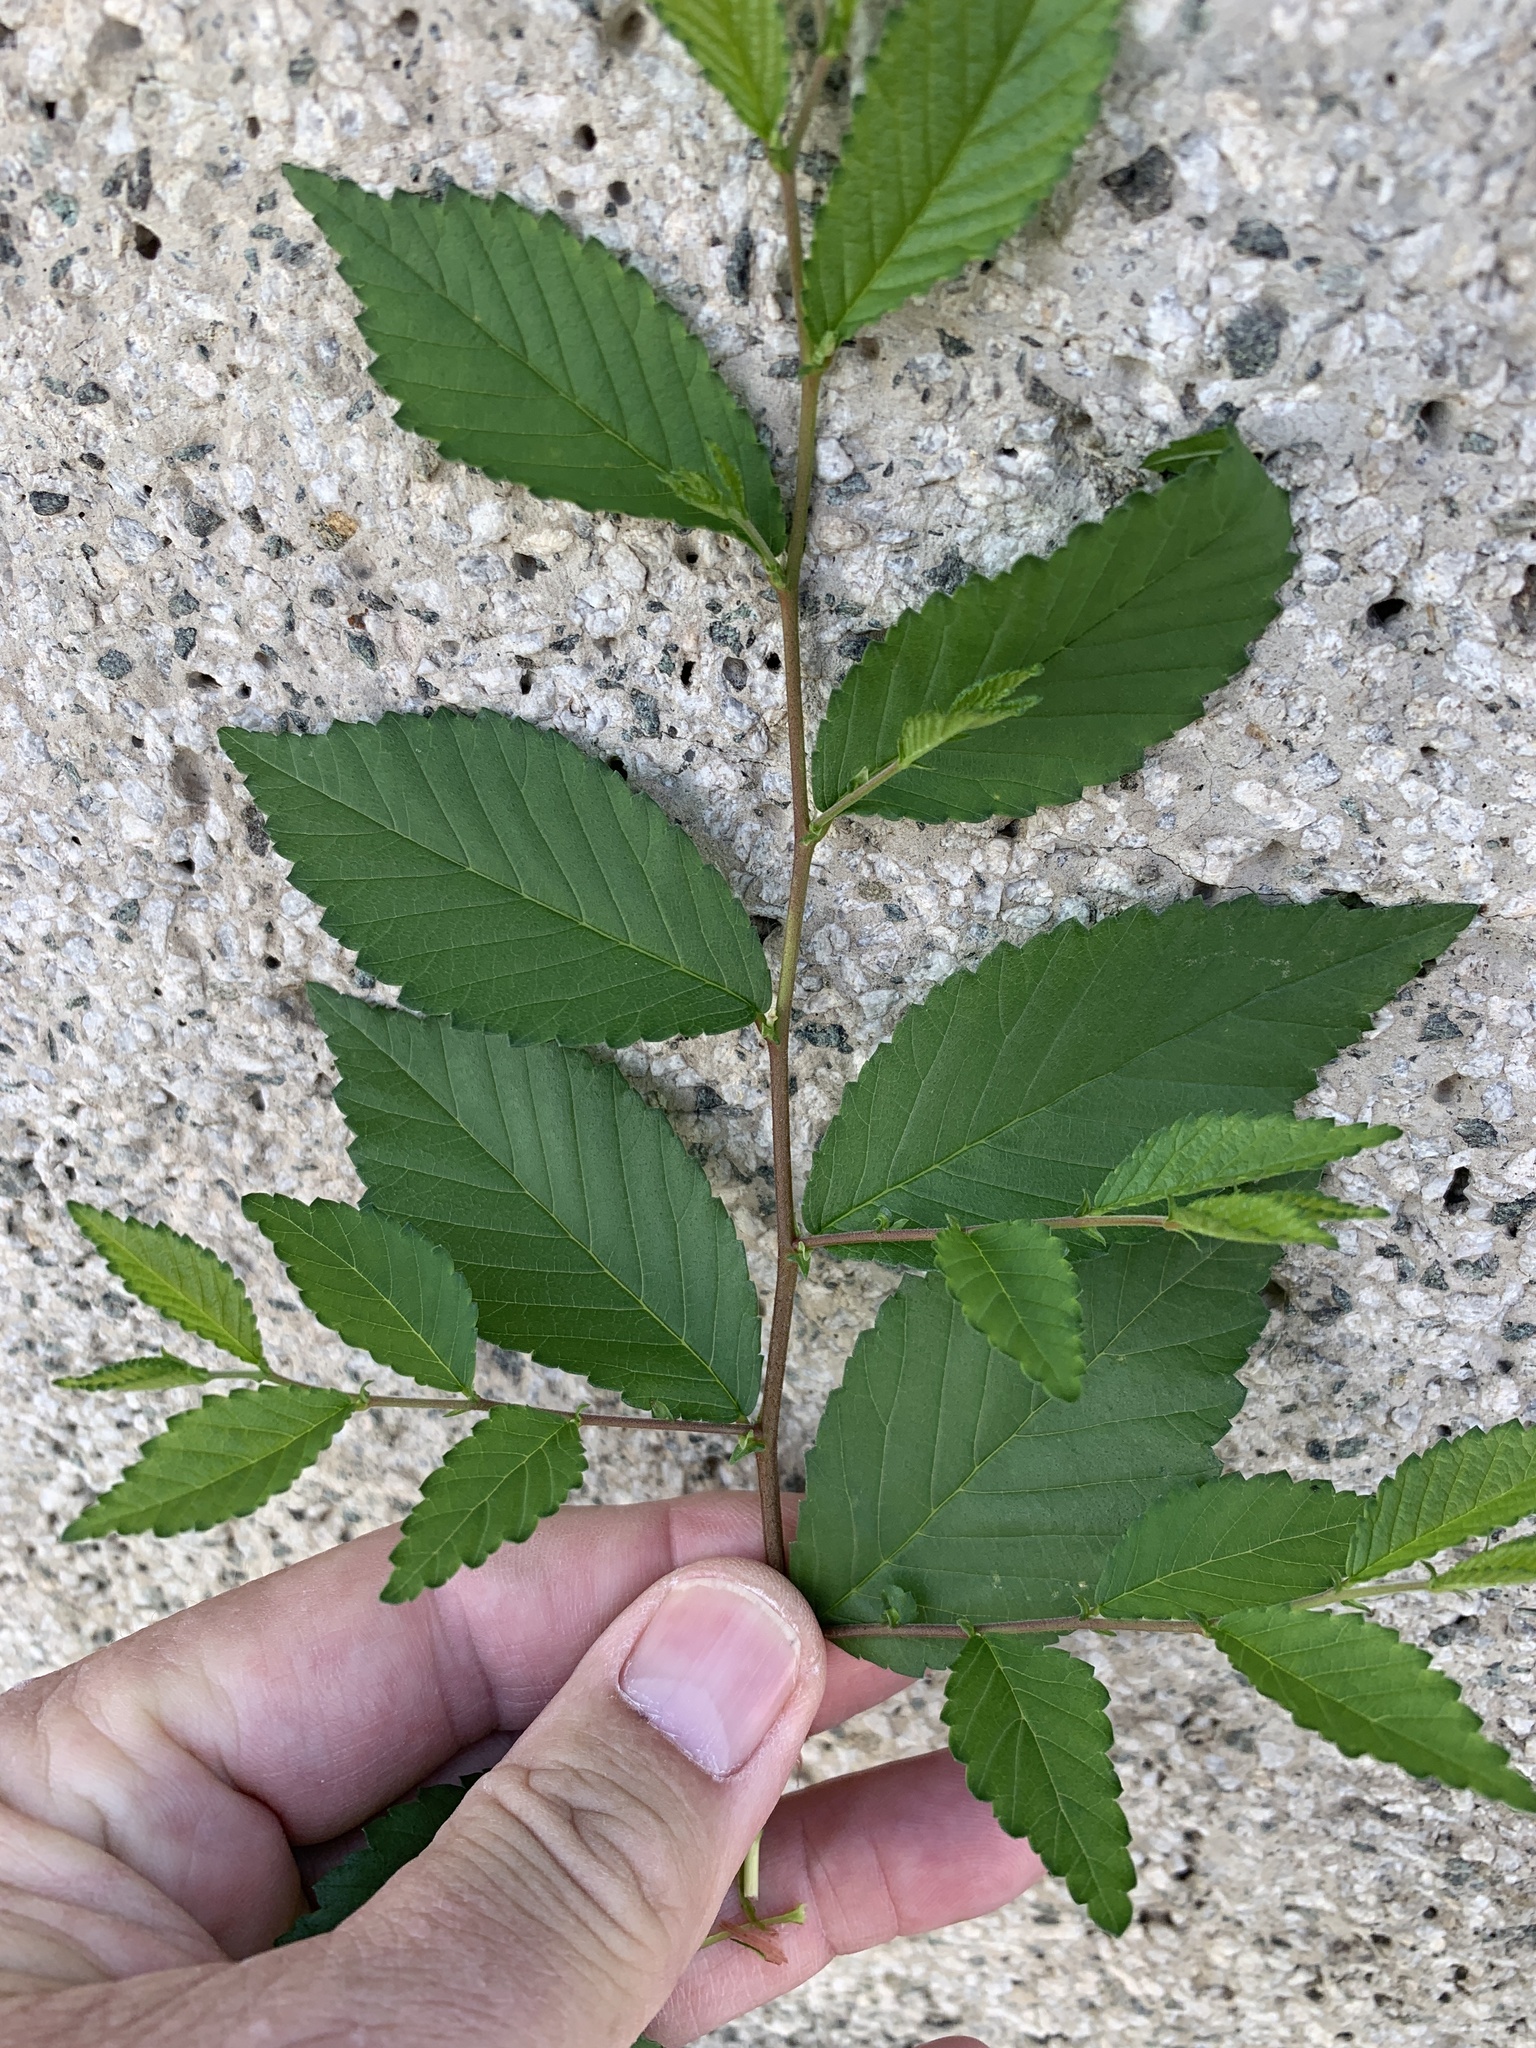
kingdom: Plantae
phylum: Tracheophyta
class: Magnoliopsida
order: Rosales
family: Ulmaceae
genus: Ulmus
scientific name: Ulmus minor
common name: Small-leaved elm
